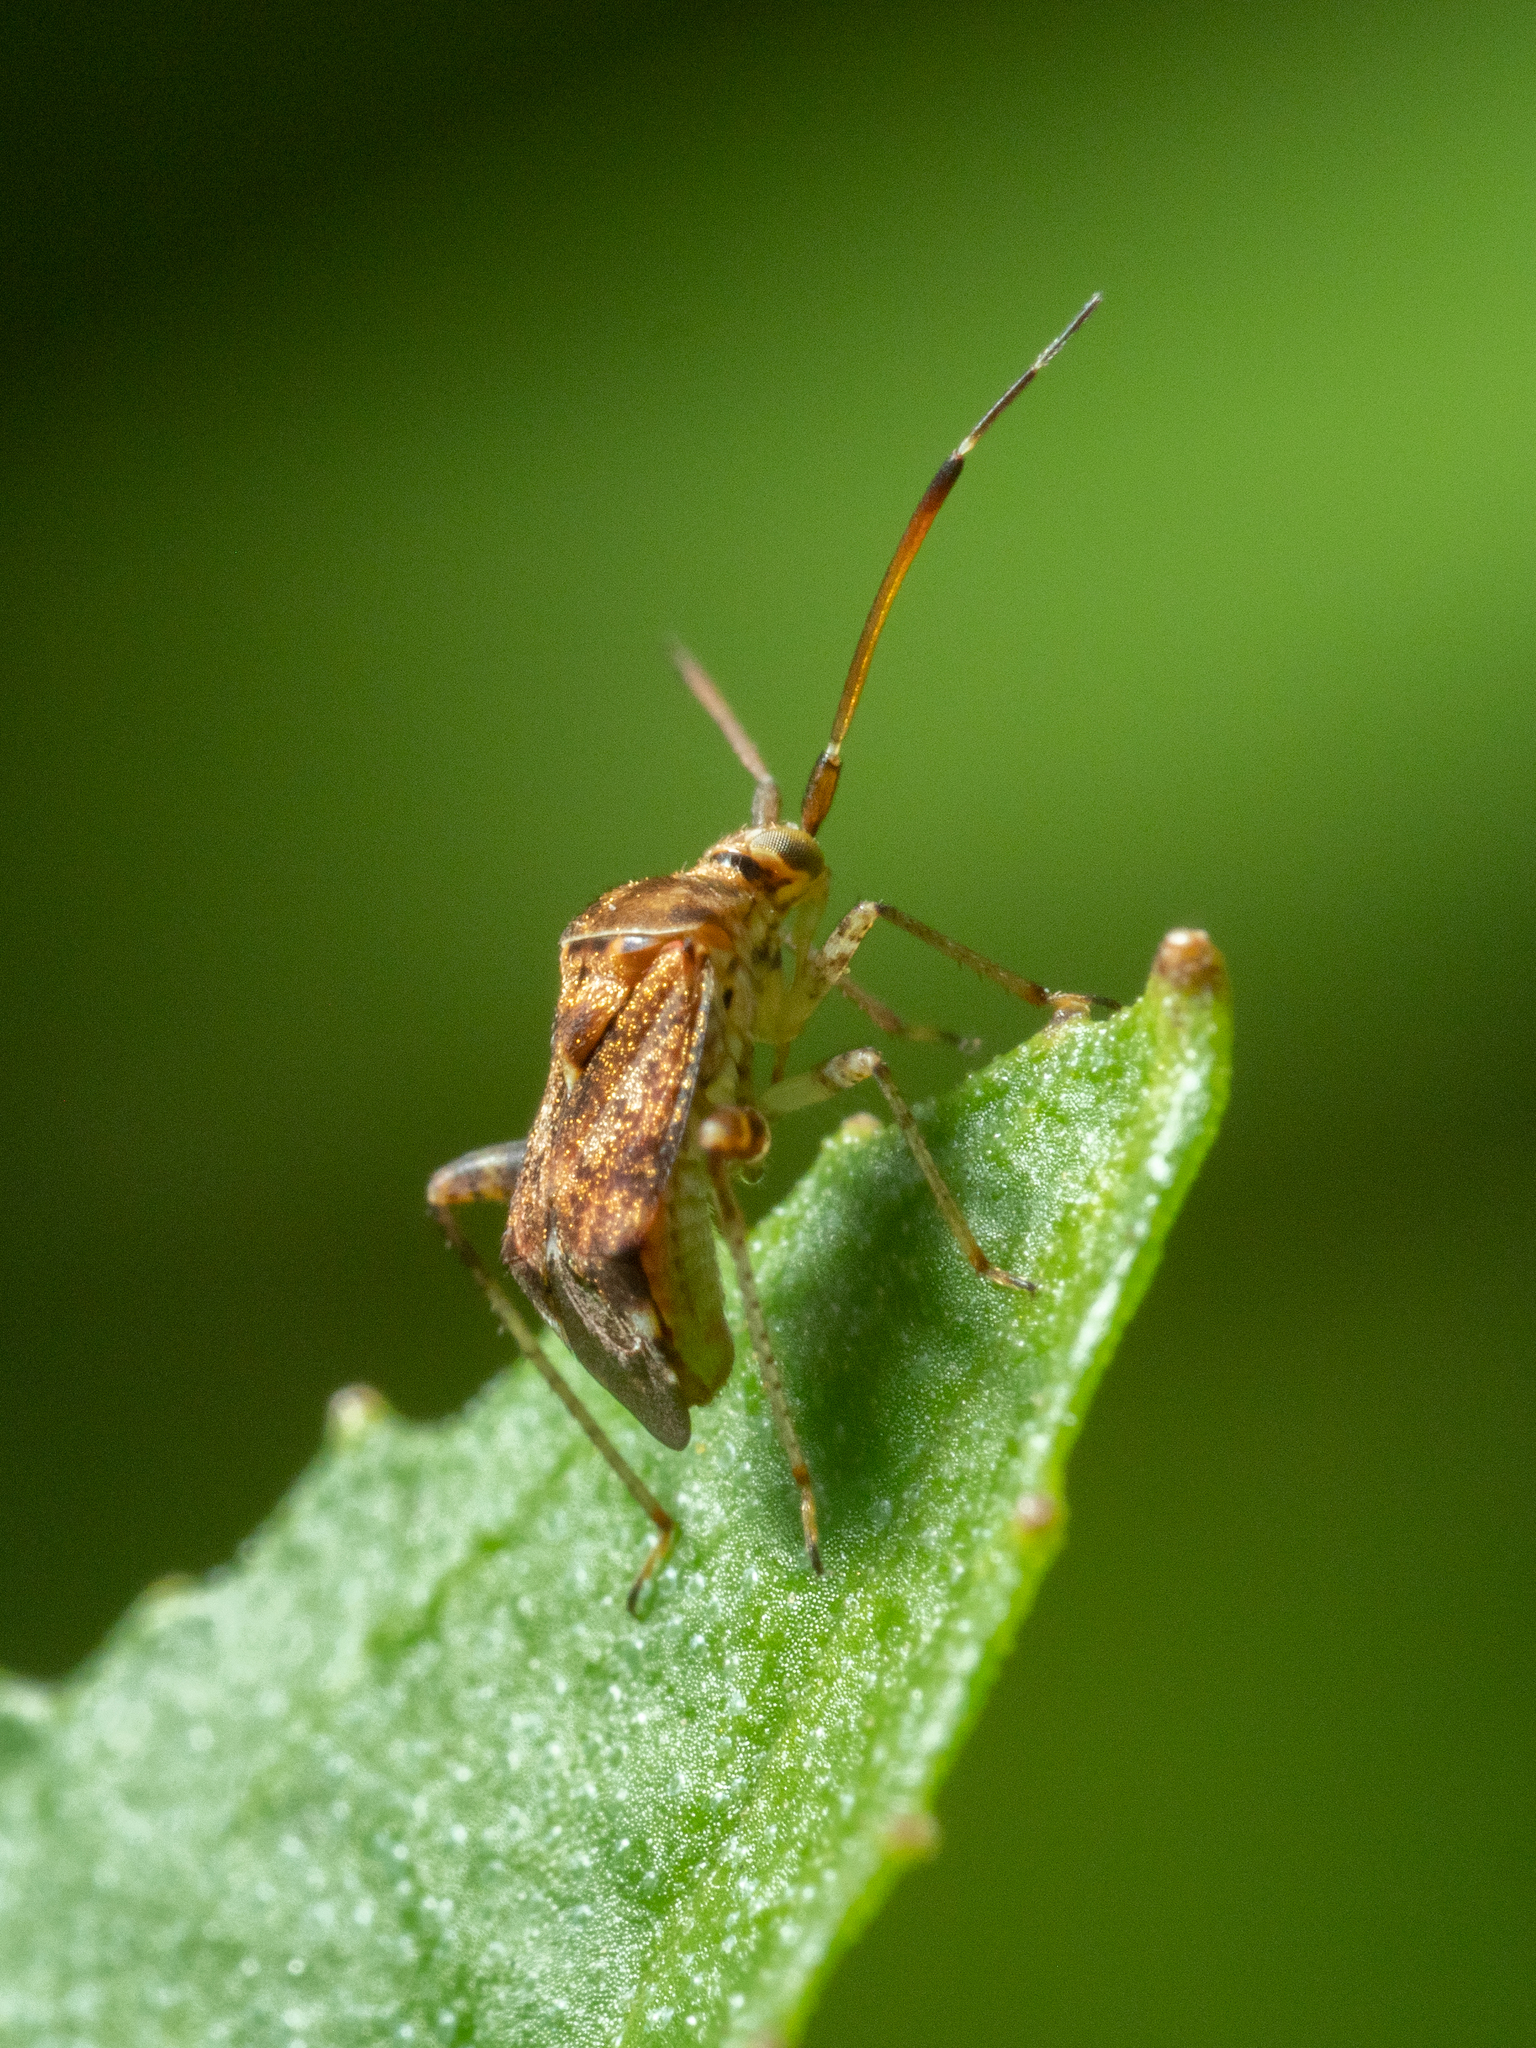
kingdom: Animalia
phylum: Arthropoda
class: Insecta
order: Hemiptera
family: Miridae
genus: Sidnia
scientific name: Sidnia kinbergi
